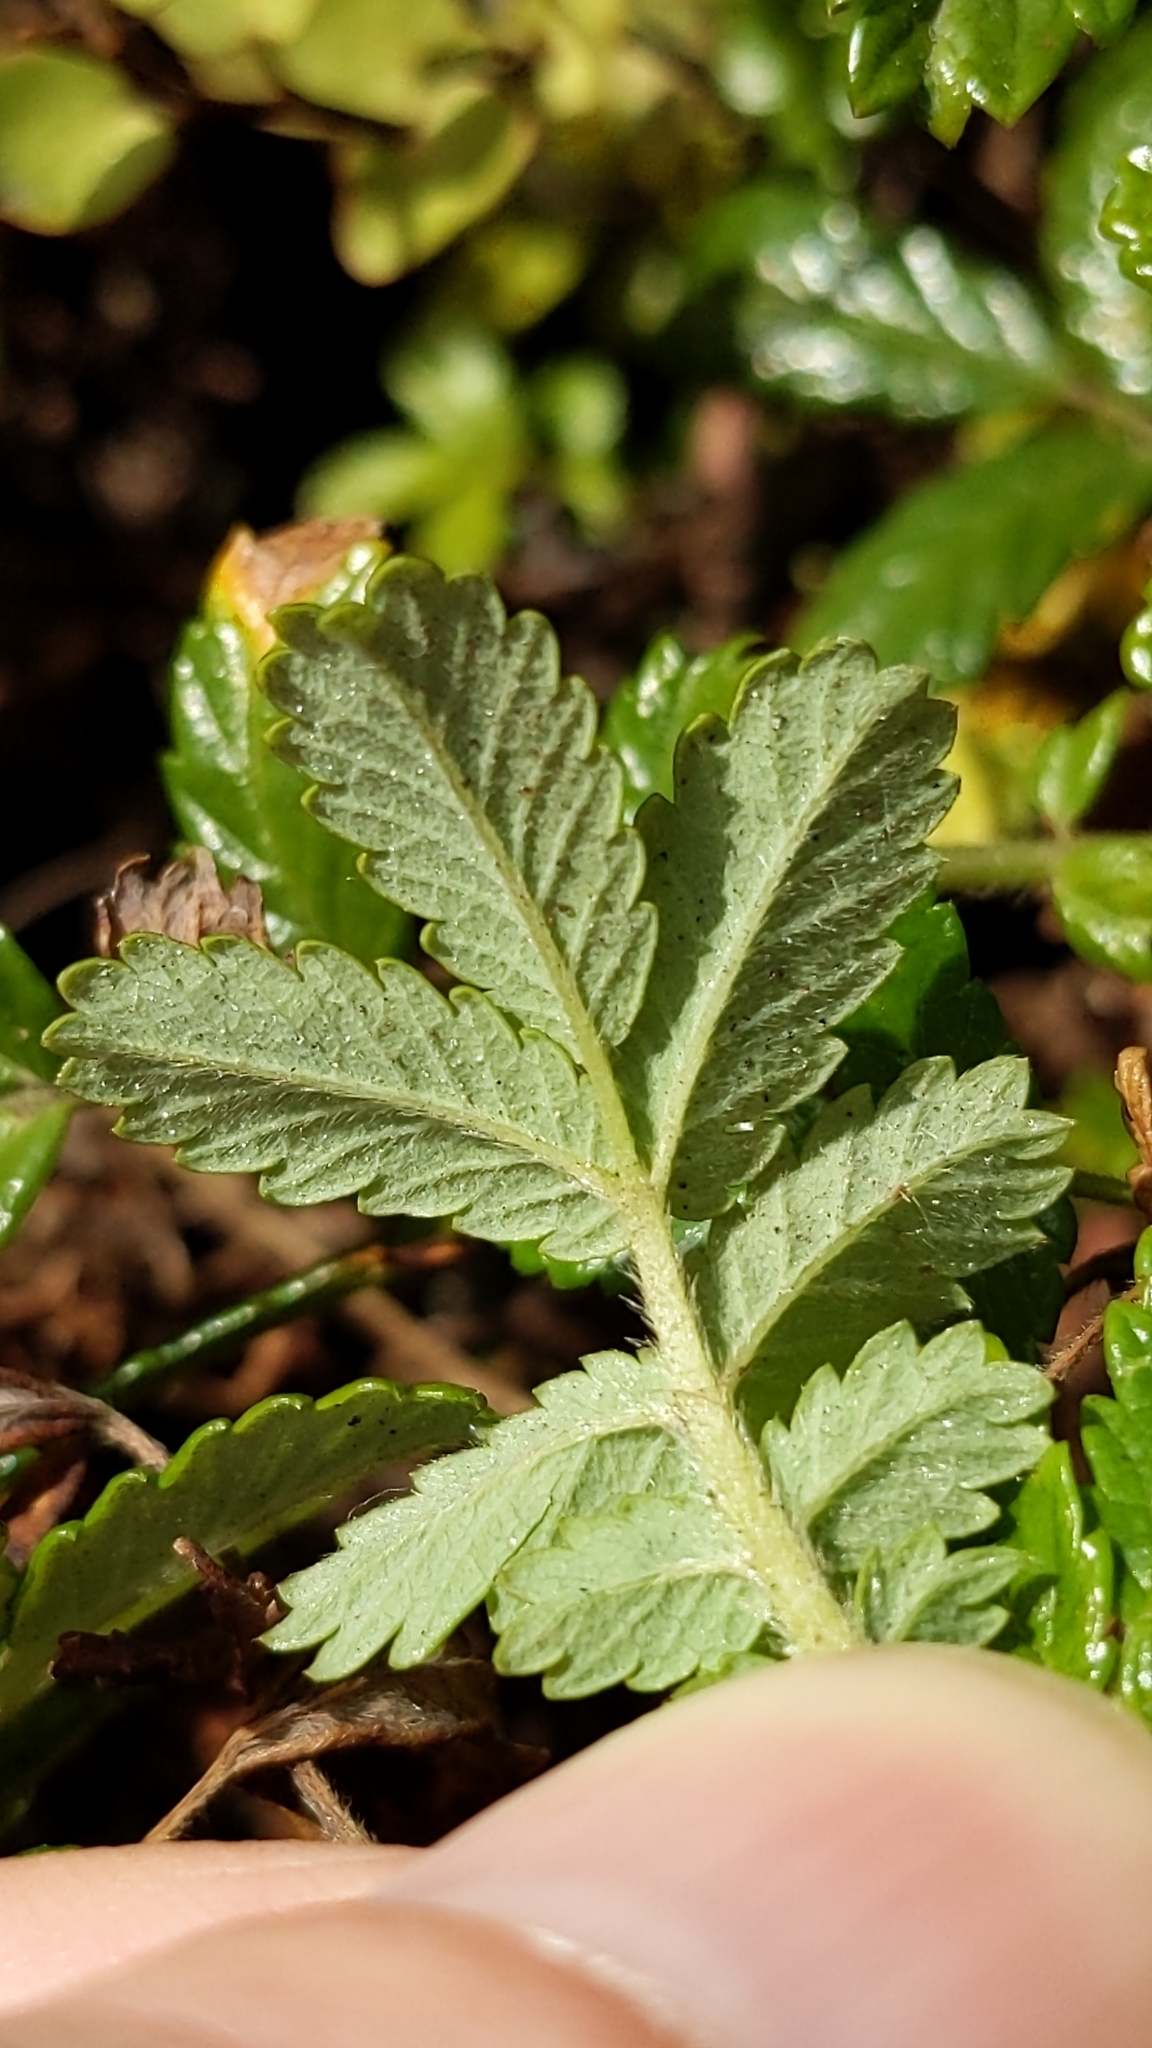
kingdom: Plantae
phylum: Tracheophyta
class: Magnoliopsida
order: Rosales
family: Rosaceae
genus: Acaena
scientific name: Acaena pallida
